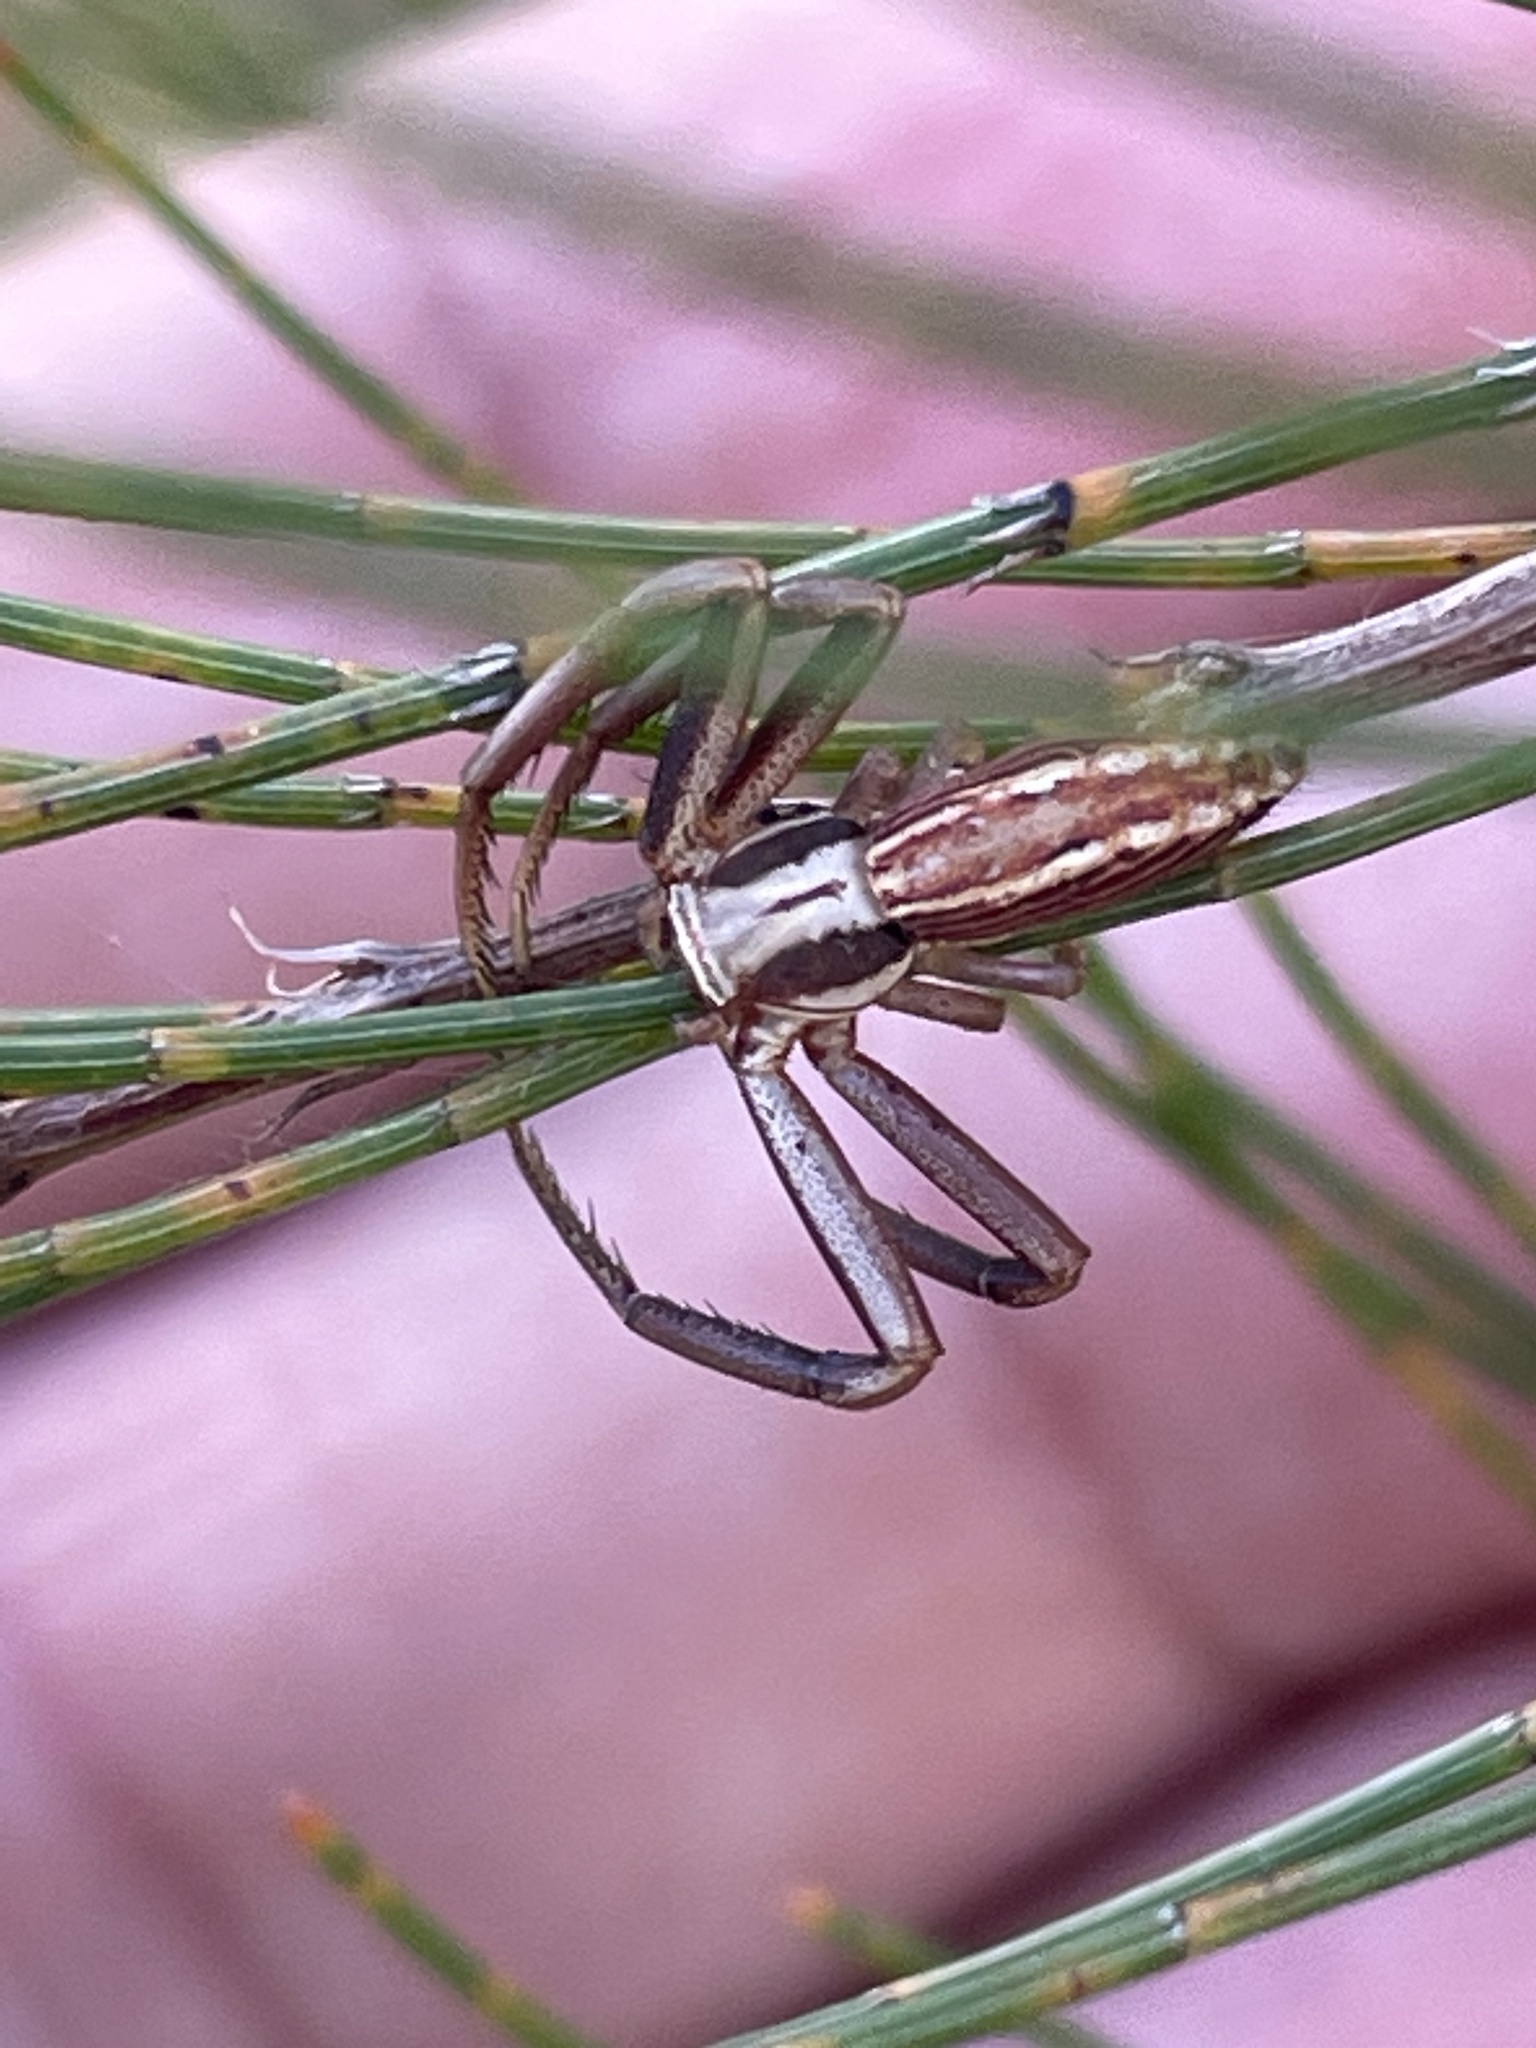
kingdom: Animalia
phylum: Arthropoda
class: Arachnida
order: Araneae
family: Thomisidae
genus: Runcinia
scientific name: Runcinia acuminata
